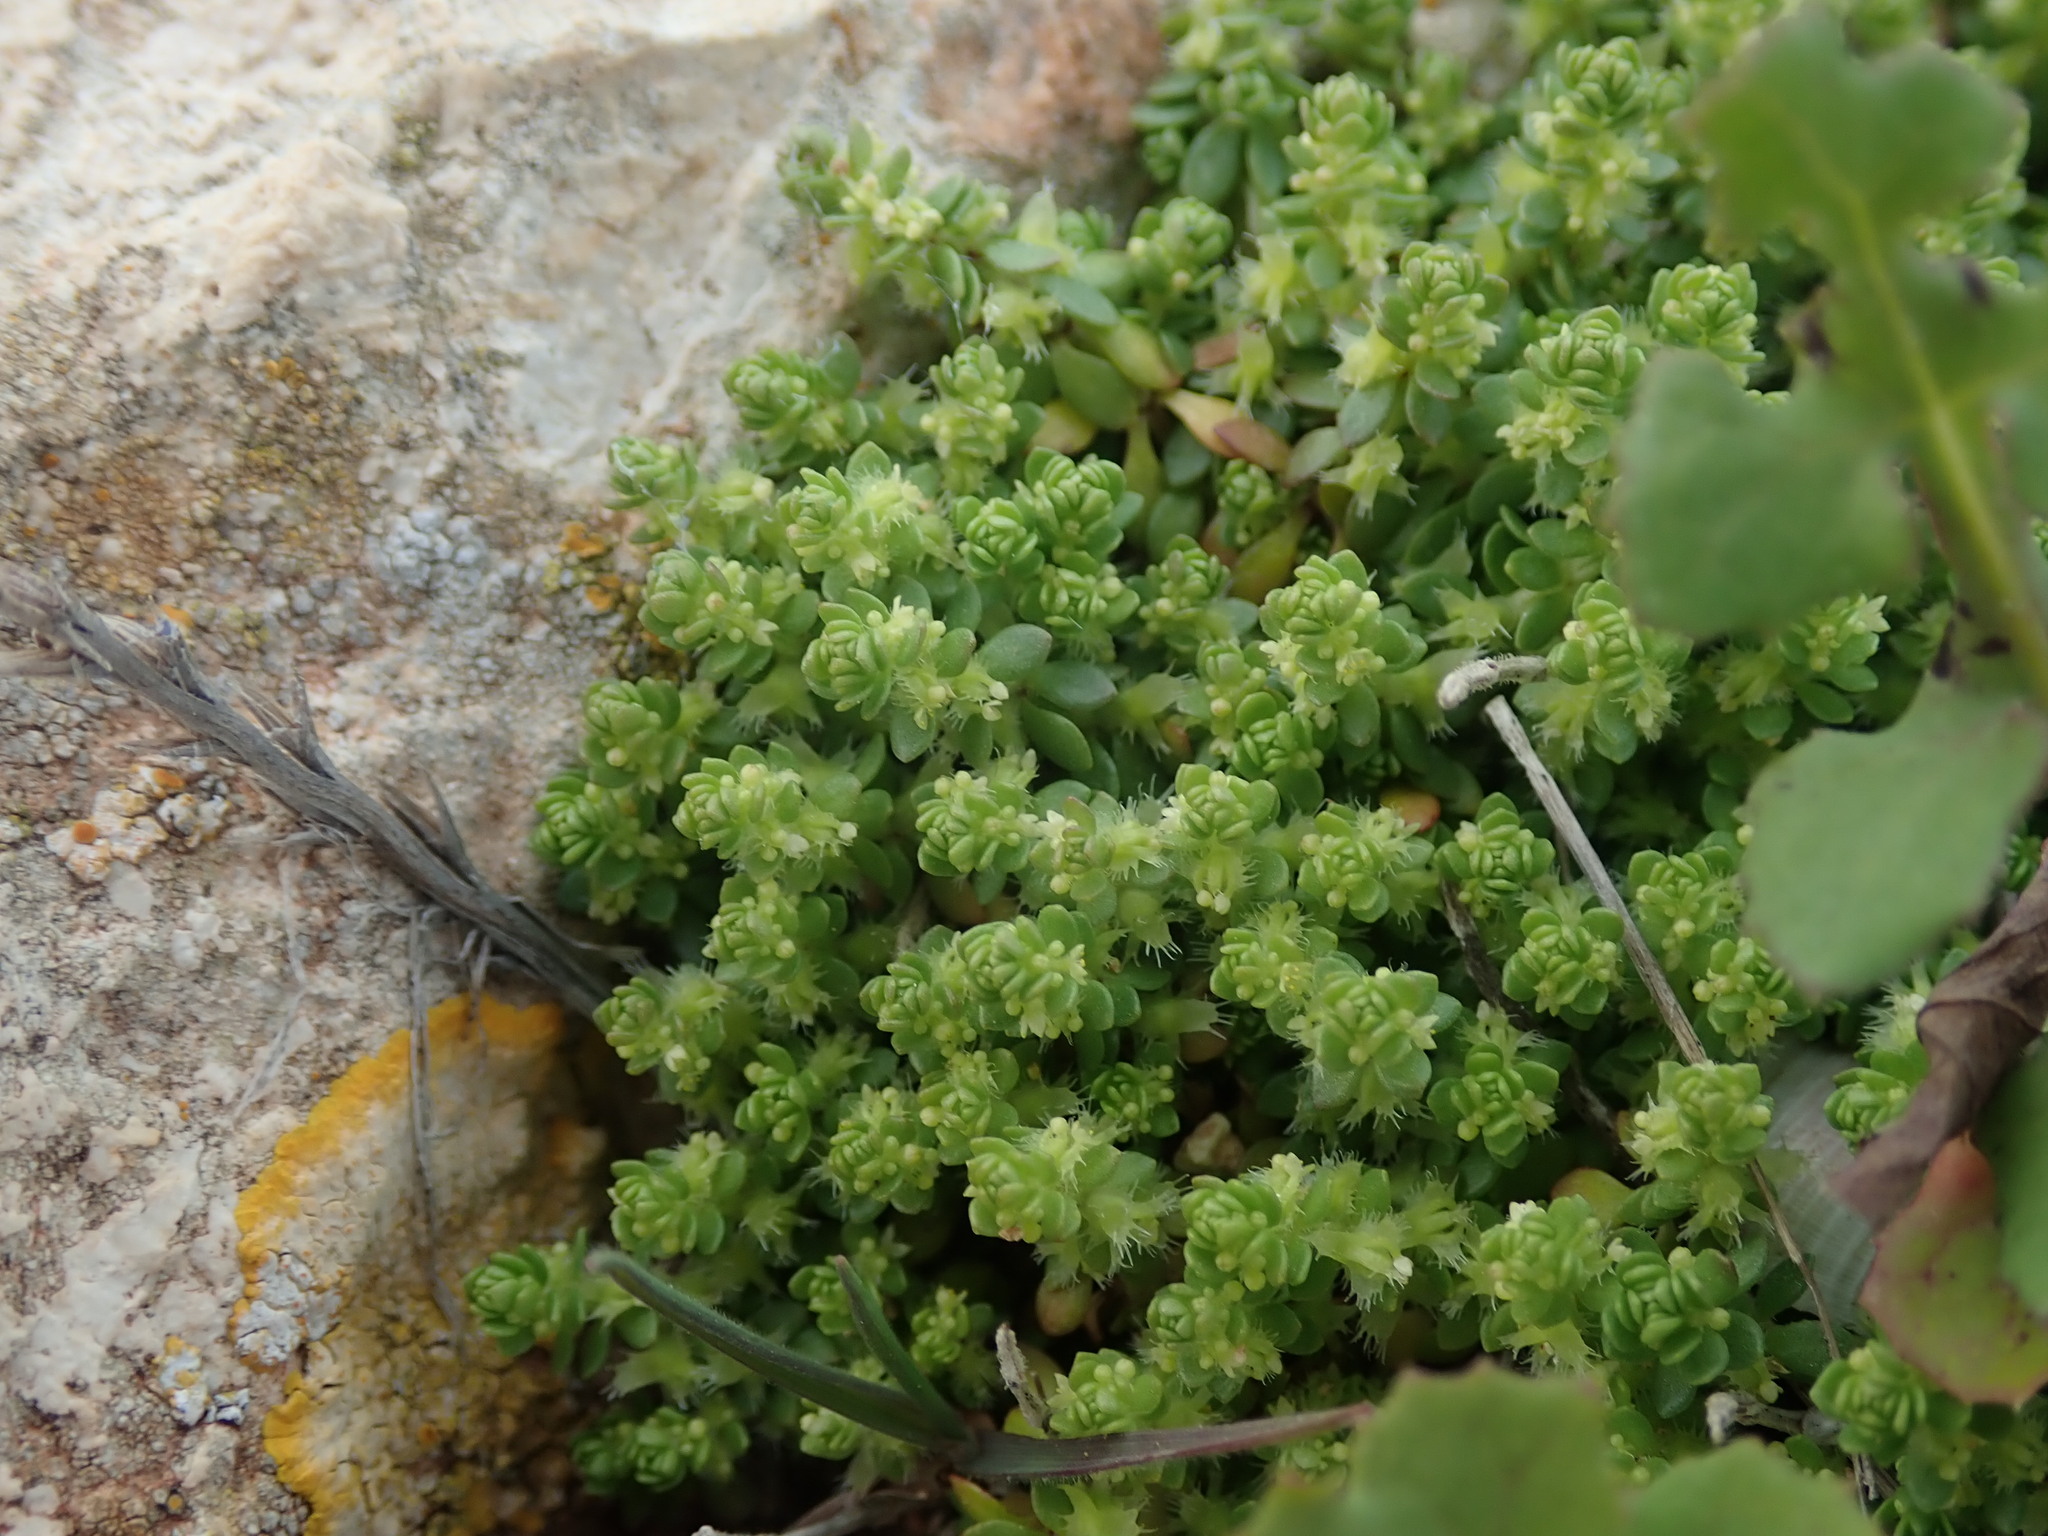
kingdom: Plantae
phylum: Tracheophyta
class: Magnoliopsida
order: Gentianales
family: Rubiaceae
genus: Valantia
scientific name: Valantia muralis
